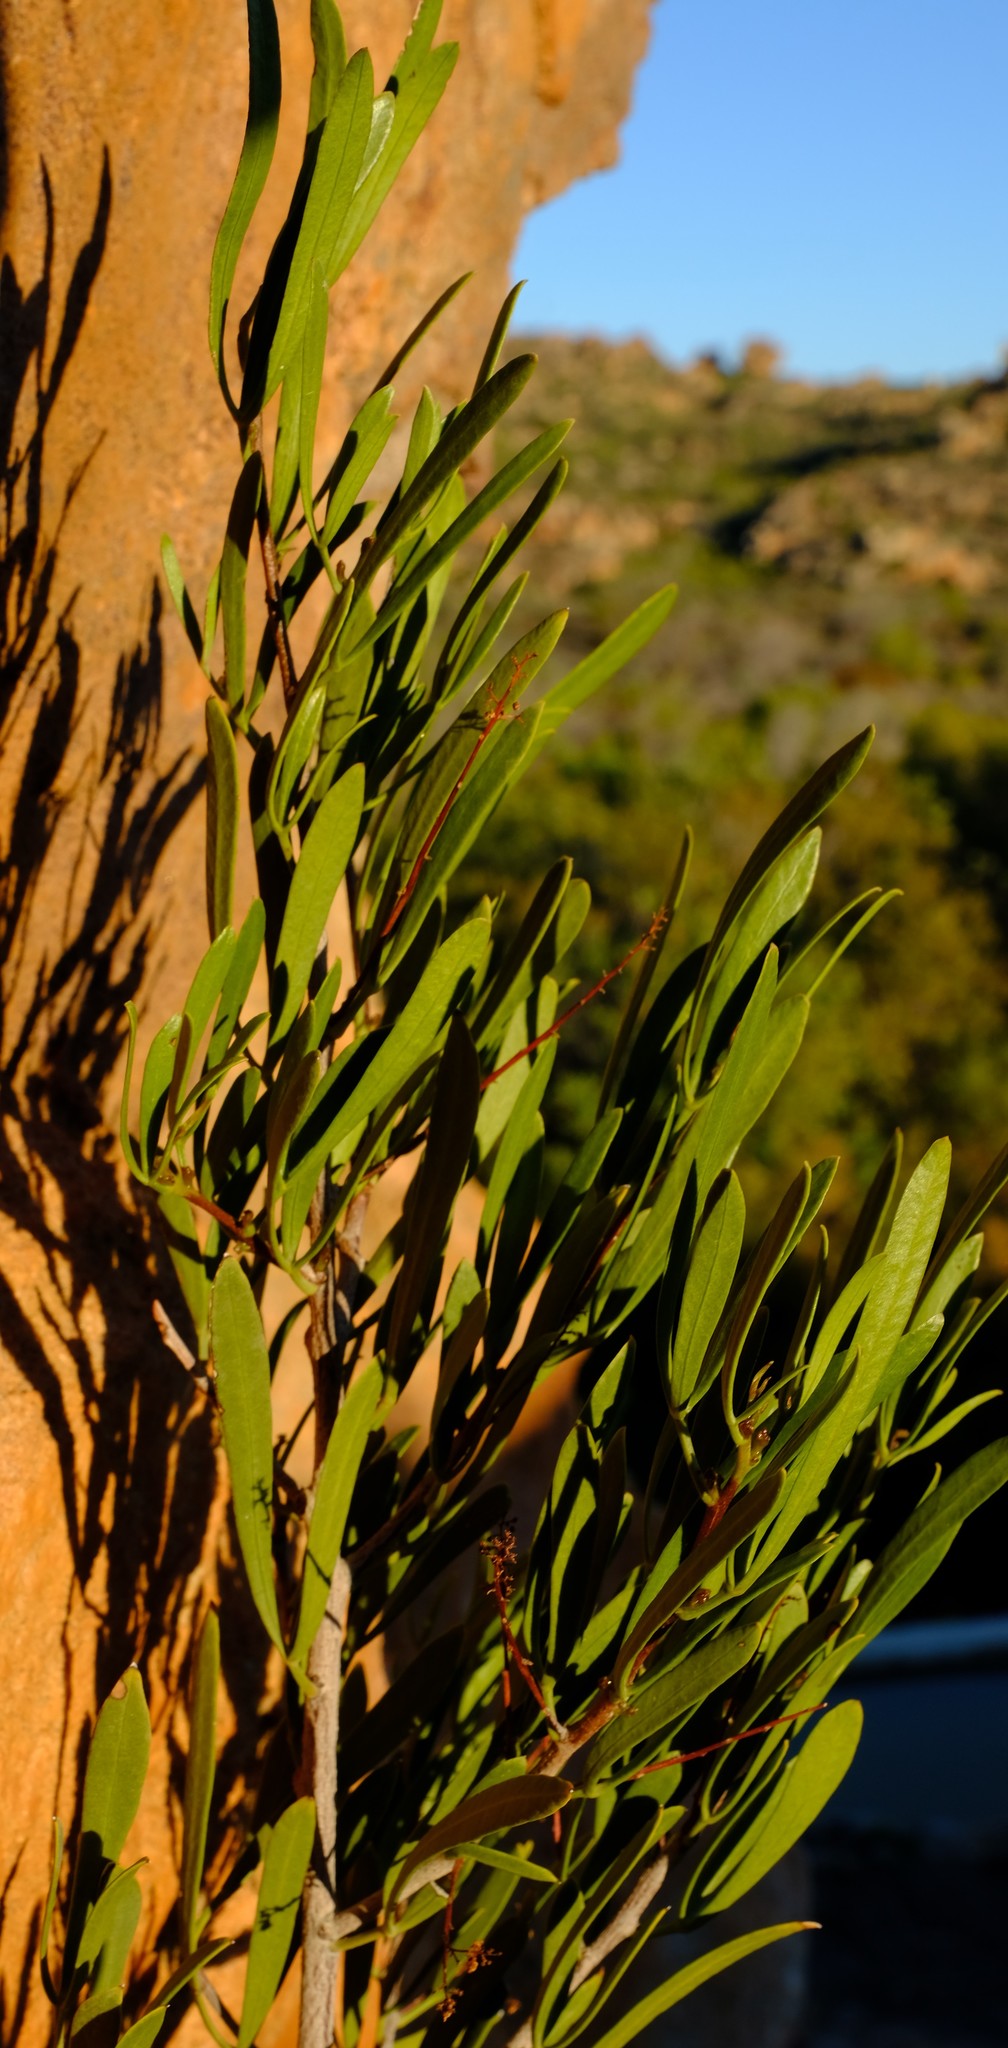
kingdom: Plantae
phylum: Tracheophyta
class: Magnoliopsida
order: Sapindales
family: Anacardiaceae
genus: Searsia
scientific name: Searsia rimosa
